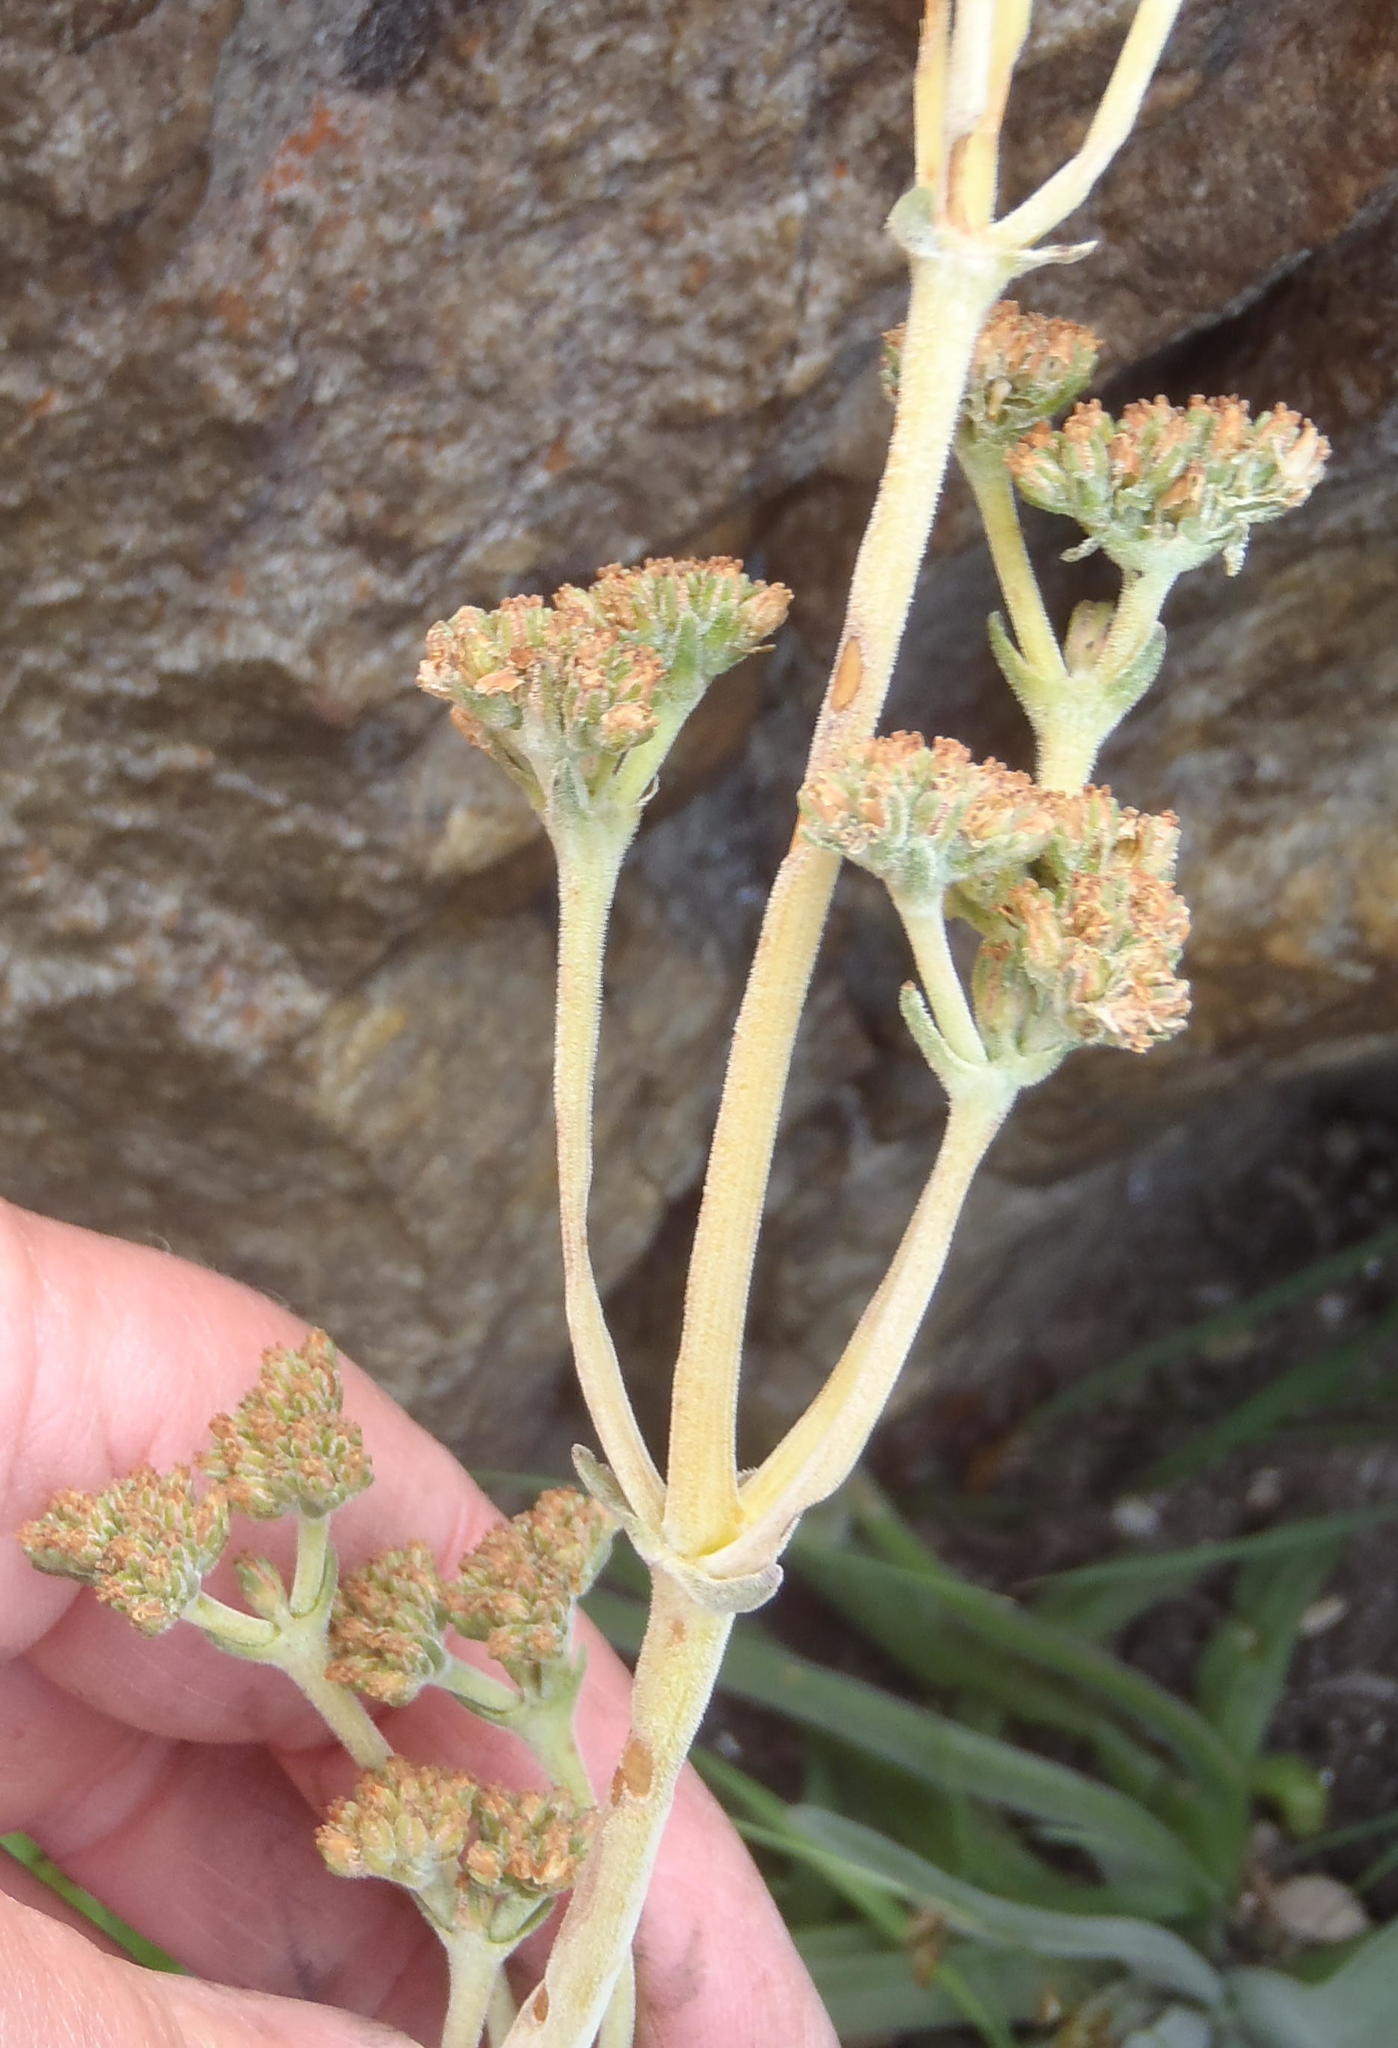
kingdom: Plantae
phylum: Tracheophyta
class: Magnoliopsida
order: Saxifragales
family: Crassulaceae
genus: Crassula
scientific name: Crassula nudicaulis
